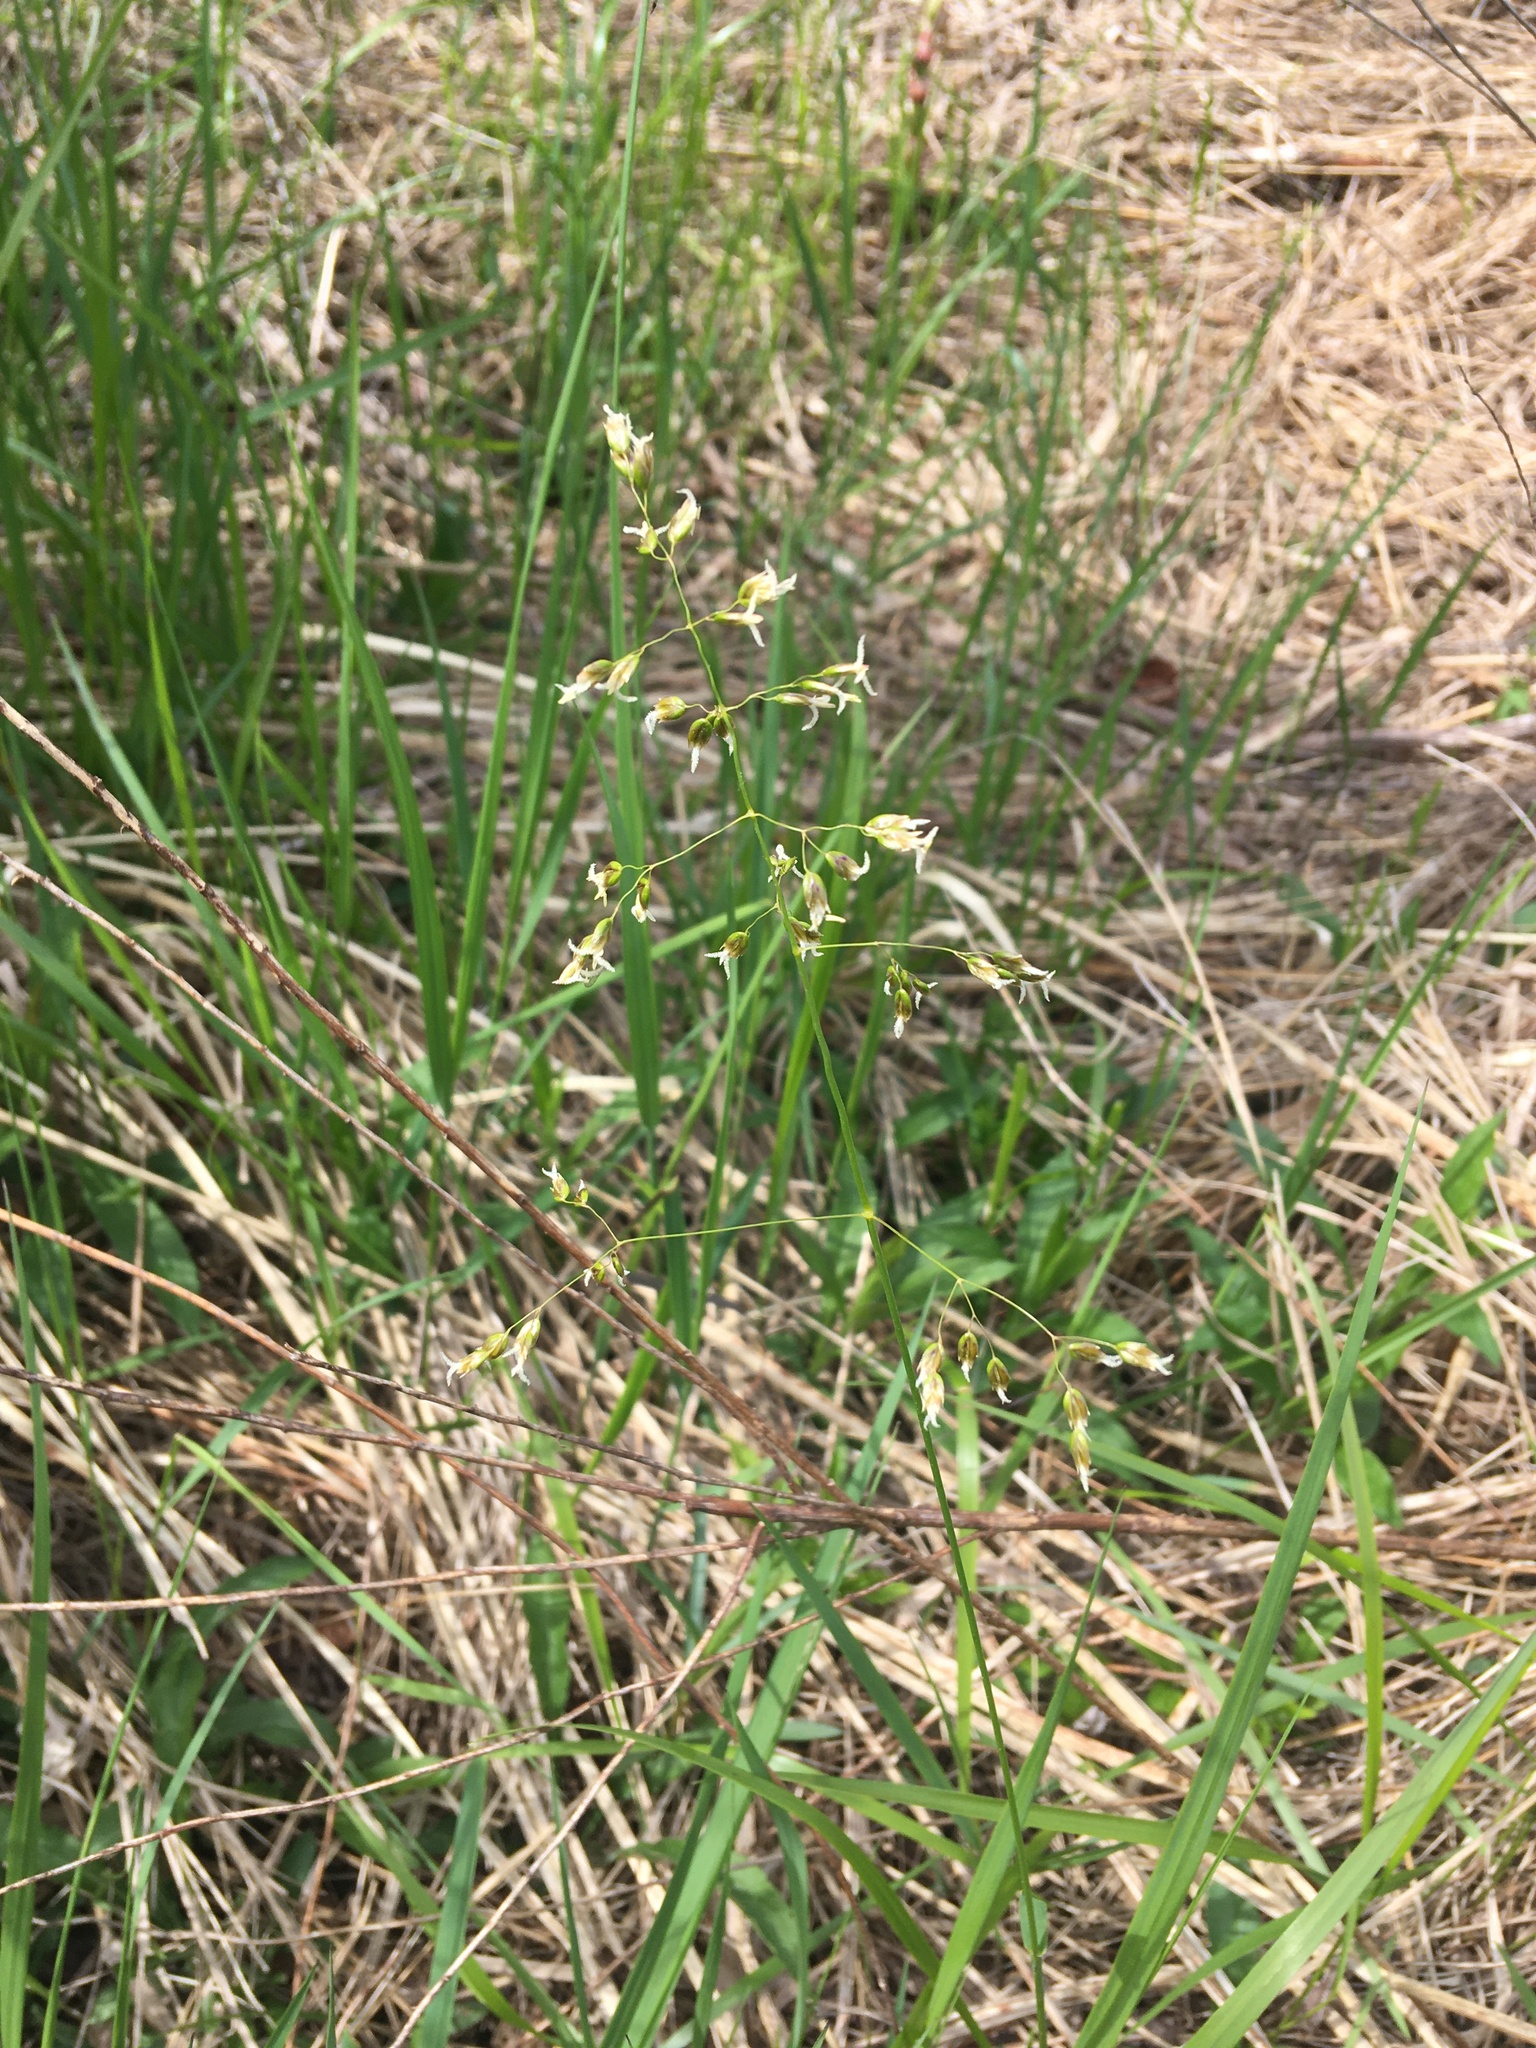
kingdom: Plantae
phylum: Tracheophyta
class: Liliopsida
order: Poales
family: Poaceae
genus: Anthoxanthum
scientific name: Anthoxanthum nitens
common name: Holy grass
